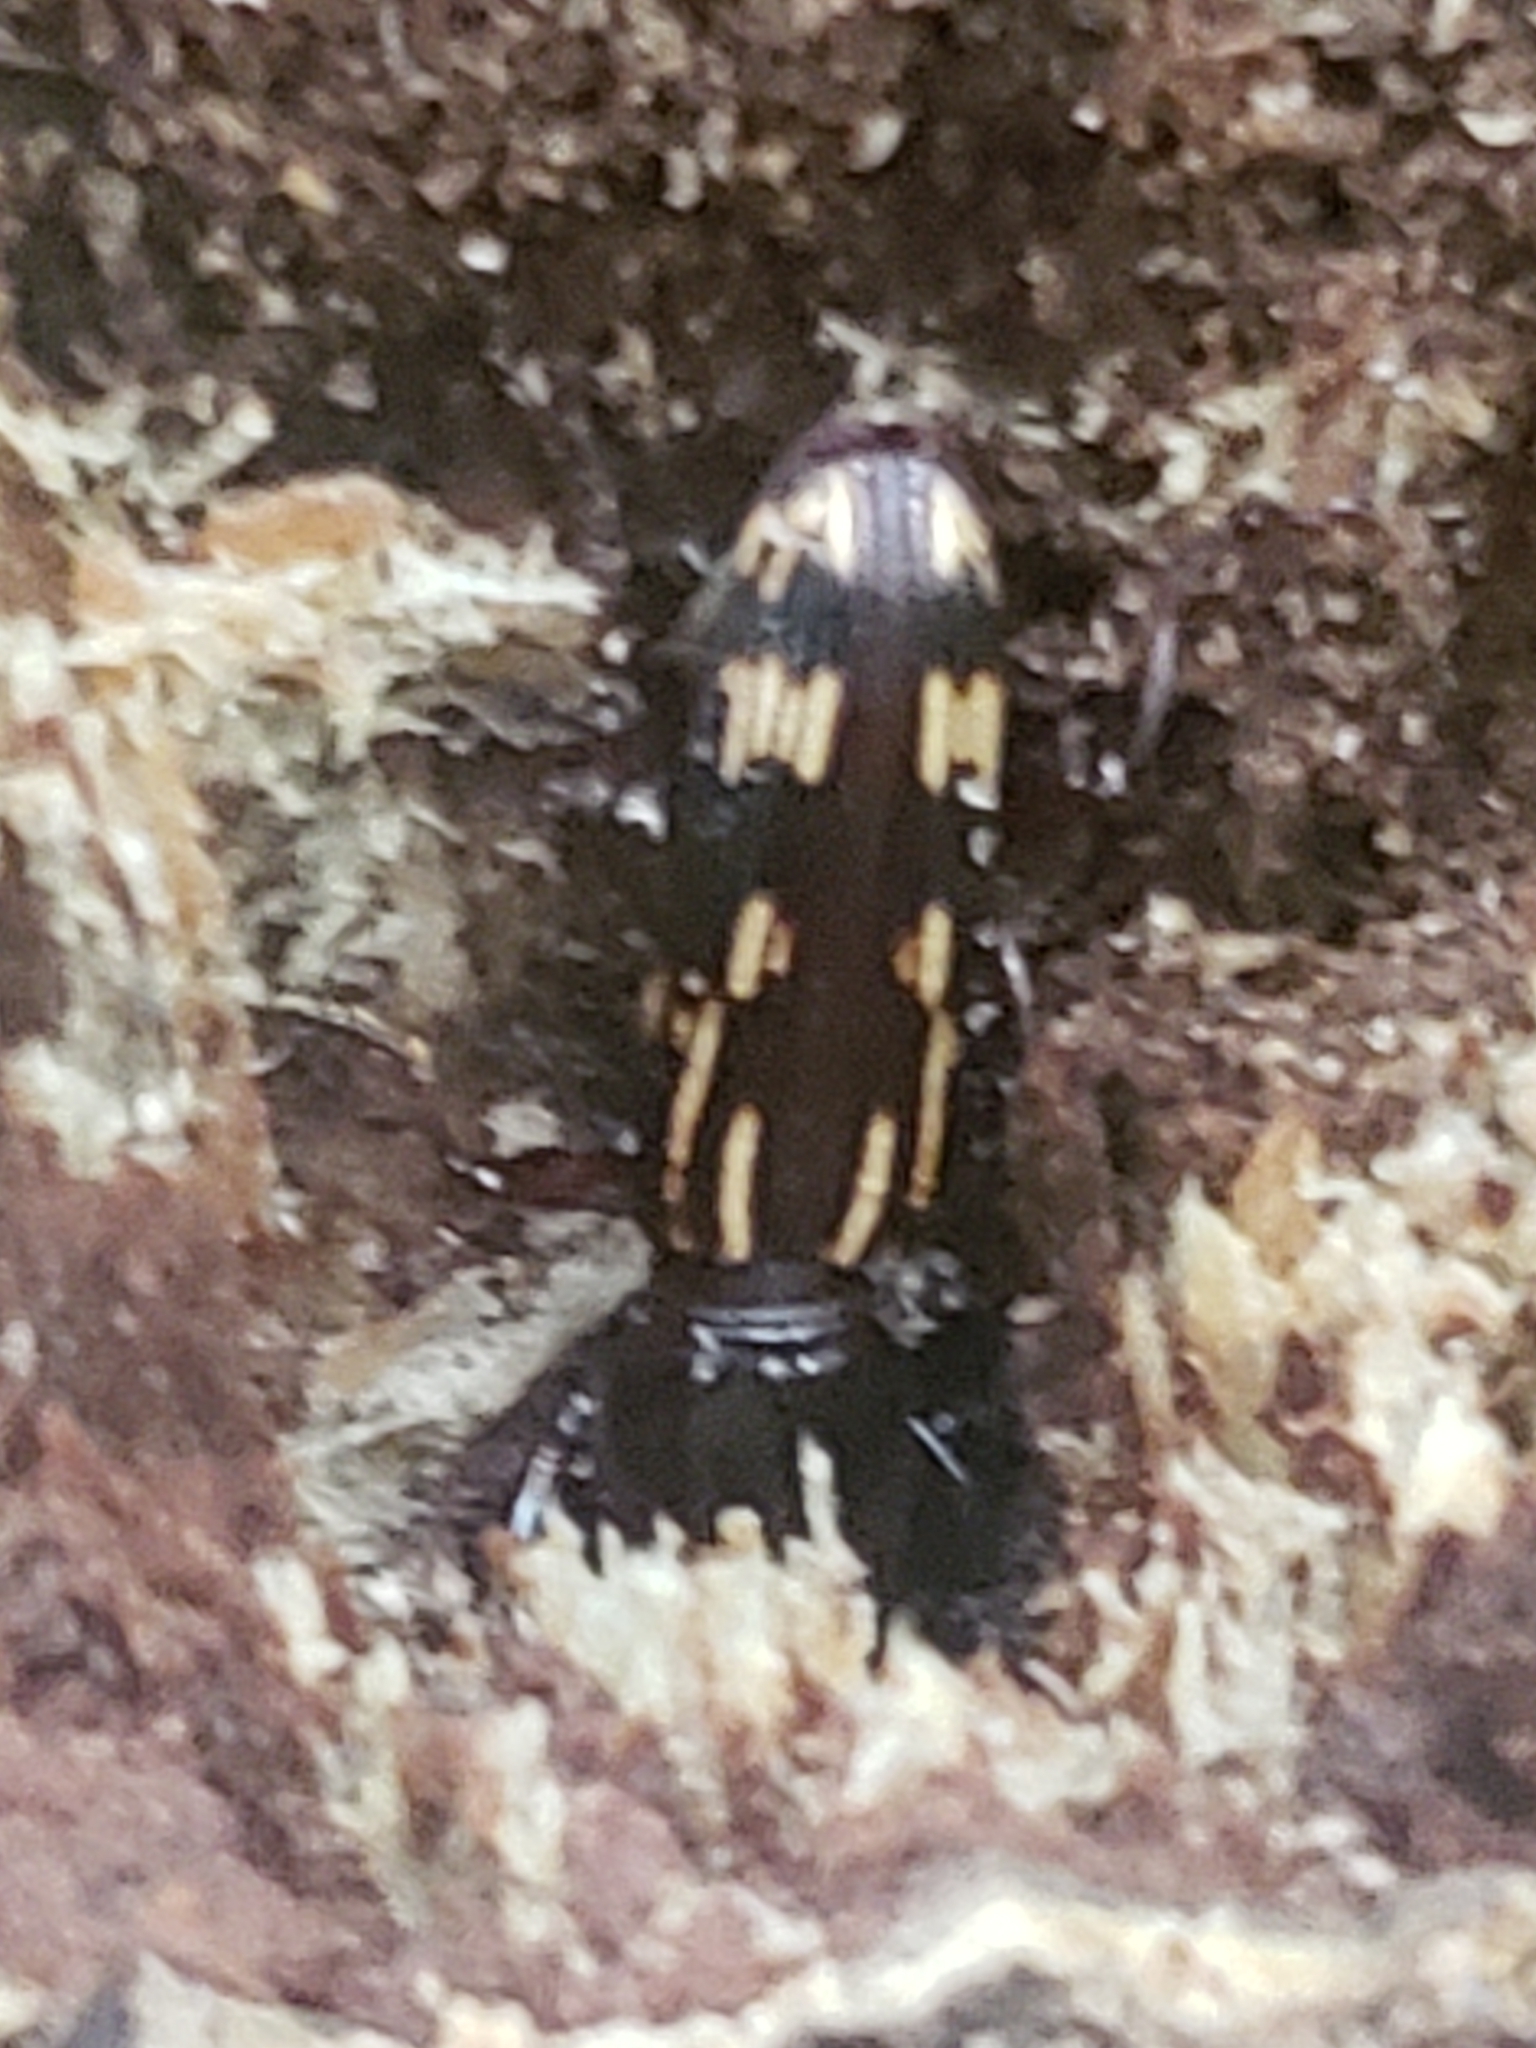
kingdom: Animalia
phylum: Arthropoda
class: Insecta
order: Coleoptera
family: Brentidae
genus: Arrenodes
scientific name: Arrenodes minutus
